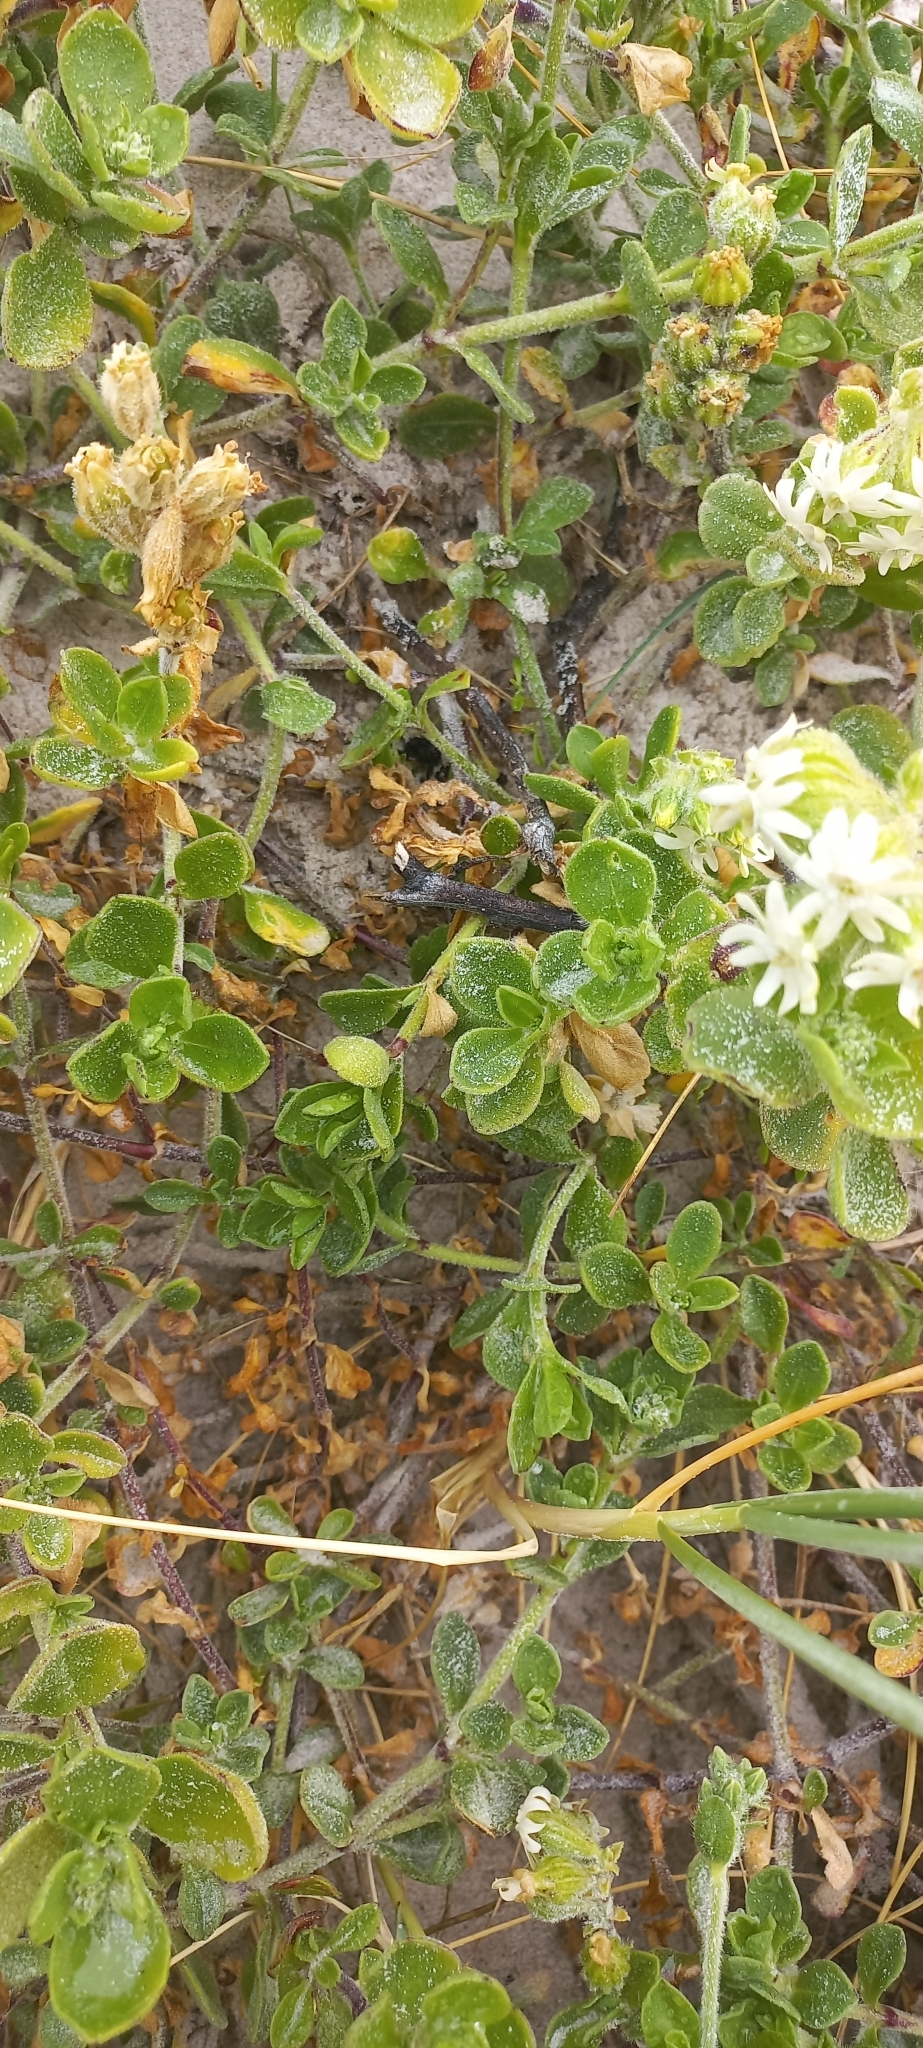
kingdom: Plantae
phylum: Tracheophyta
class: Magnoliopsida
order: Caryophyllales
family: Caryophyllaceae
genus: Silene
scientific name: Silene crassifolia
